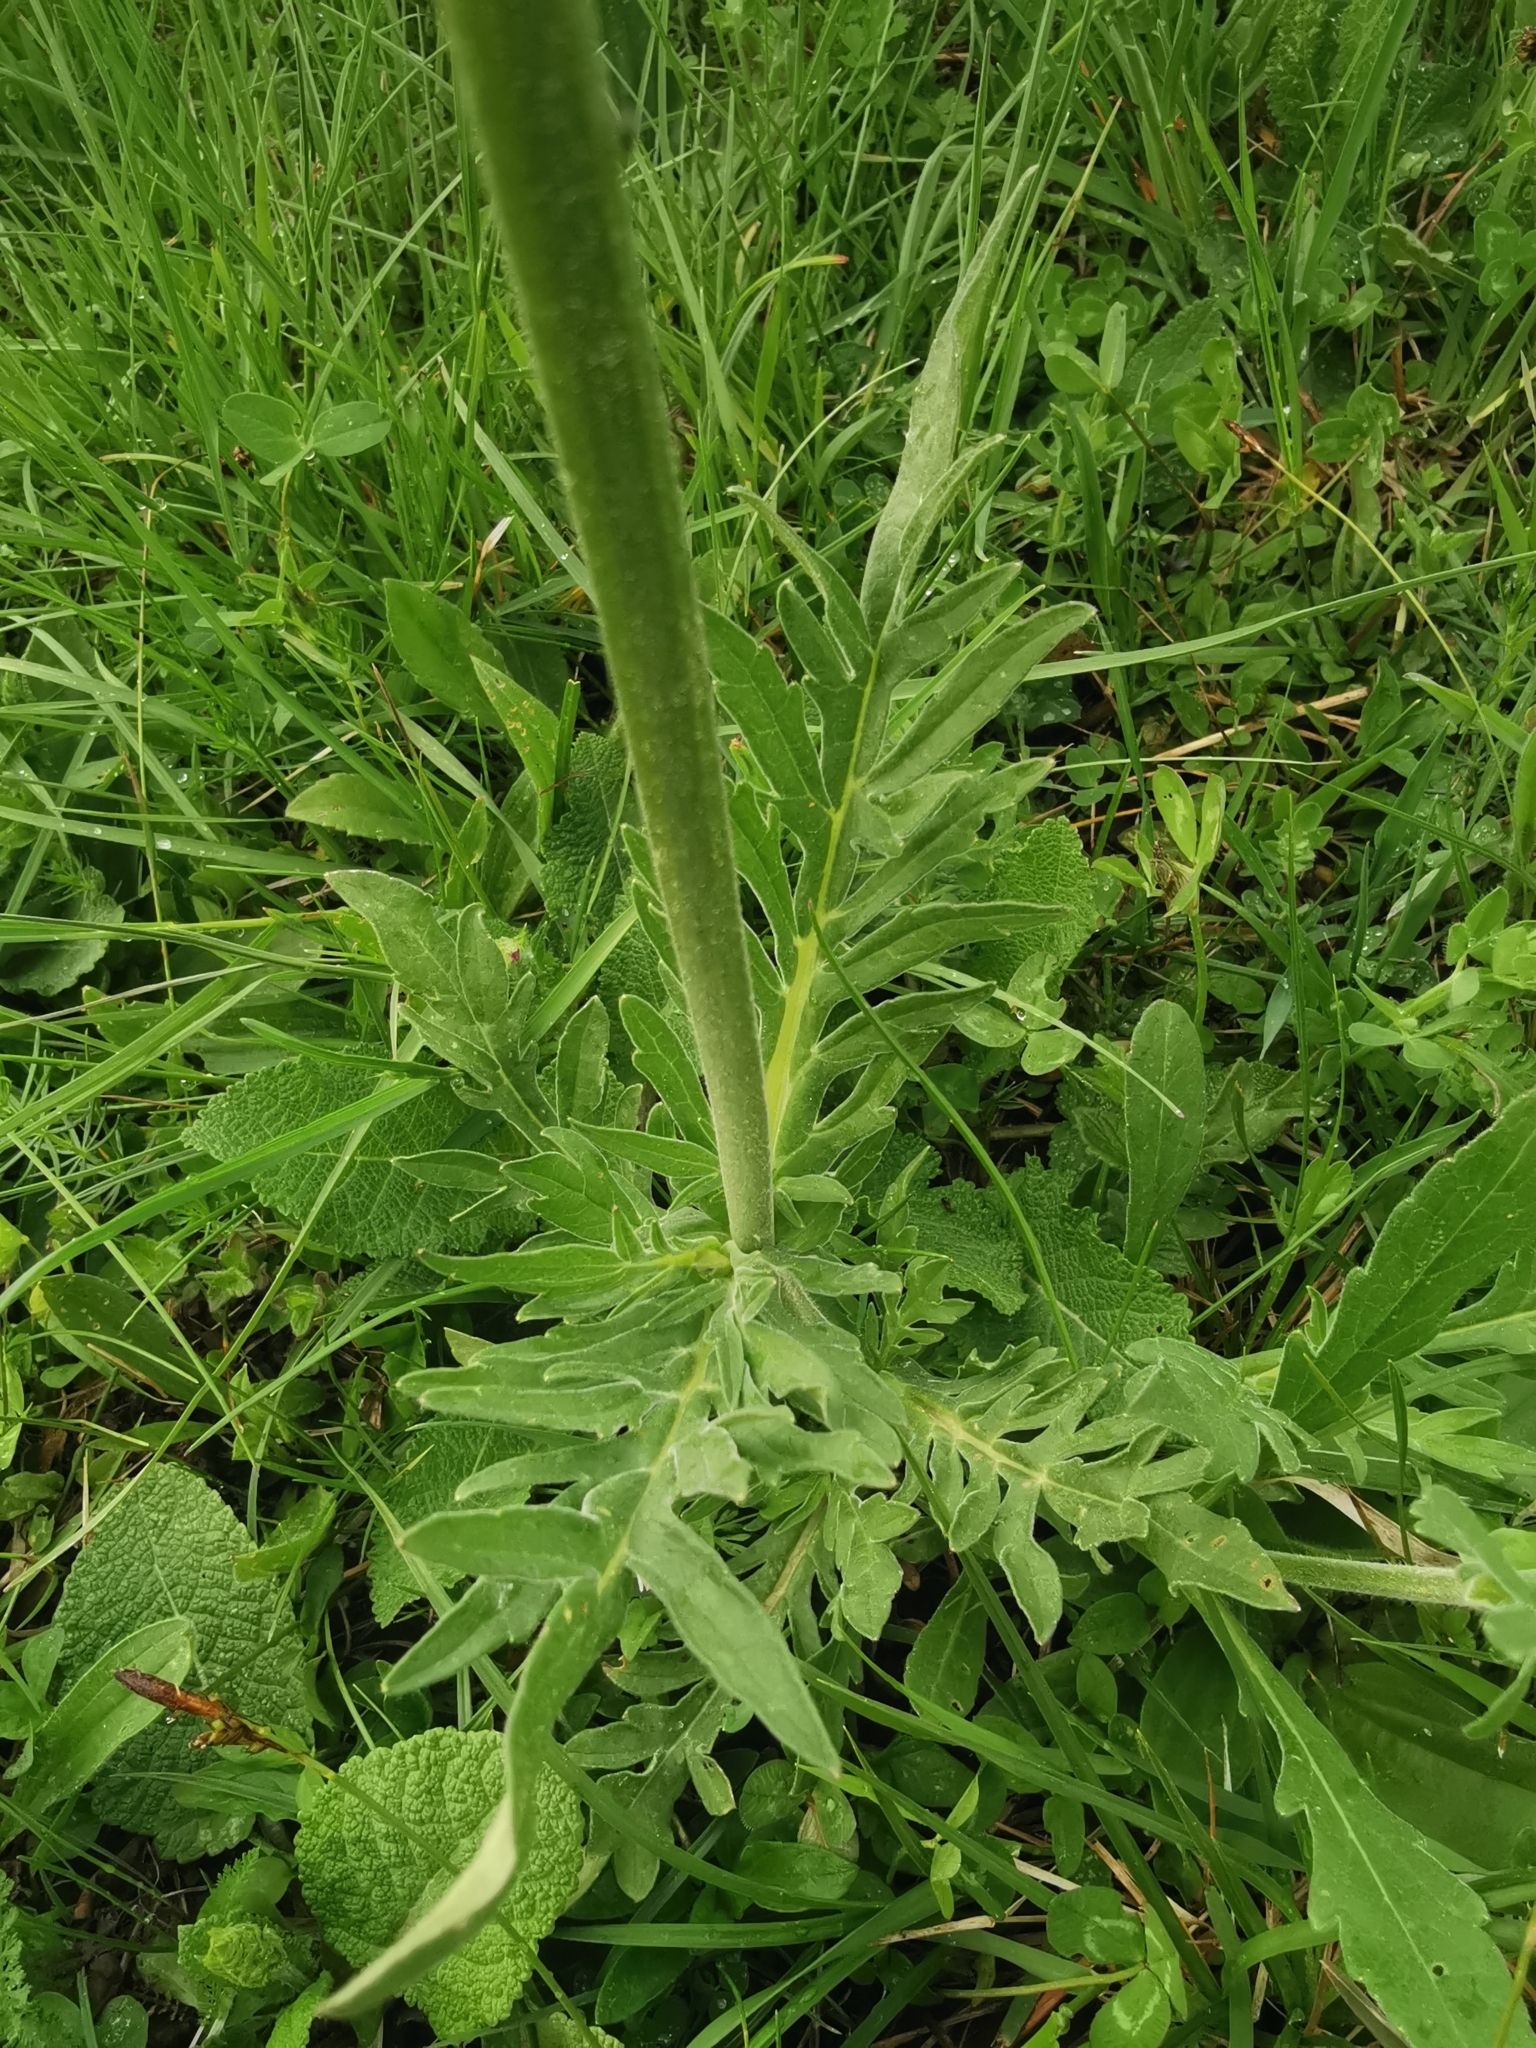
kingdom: Plantae
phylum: Tracheophyta
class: Magnoliopsida
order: Dipsacales
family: Caprifoliaceae
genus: Knautia
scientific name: Knautia arvensis
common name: Field scabiosa
